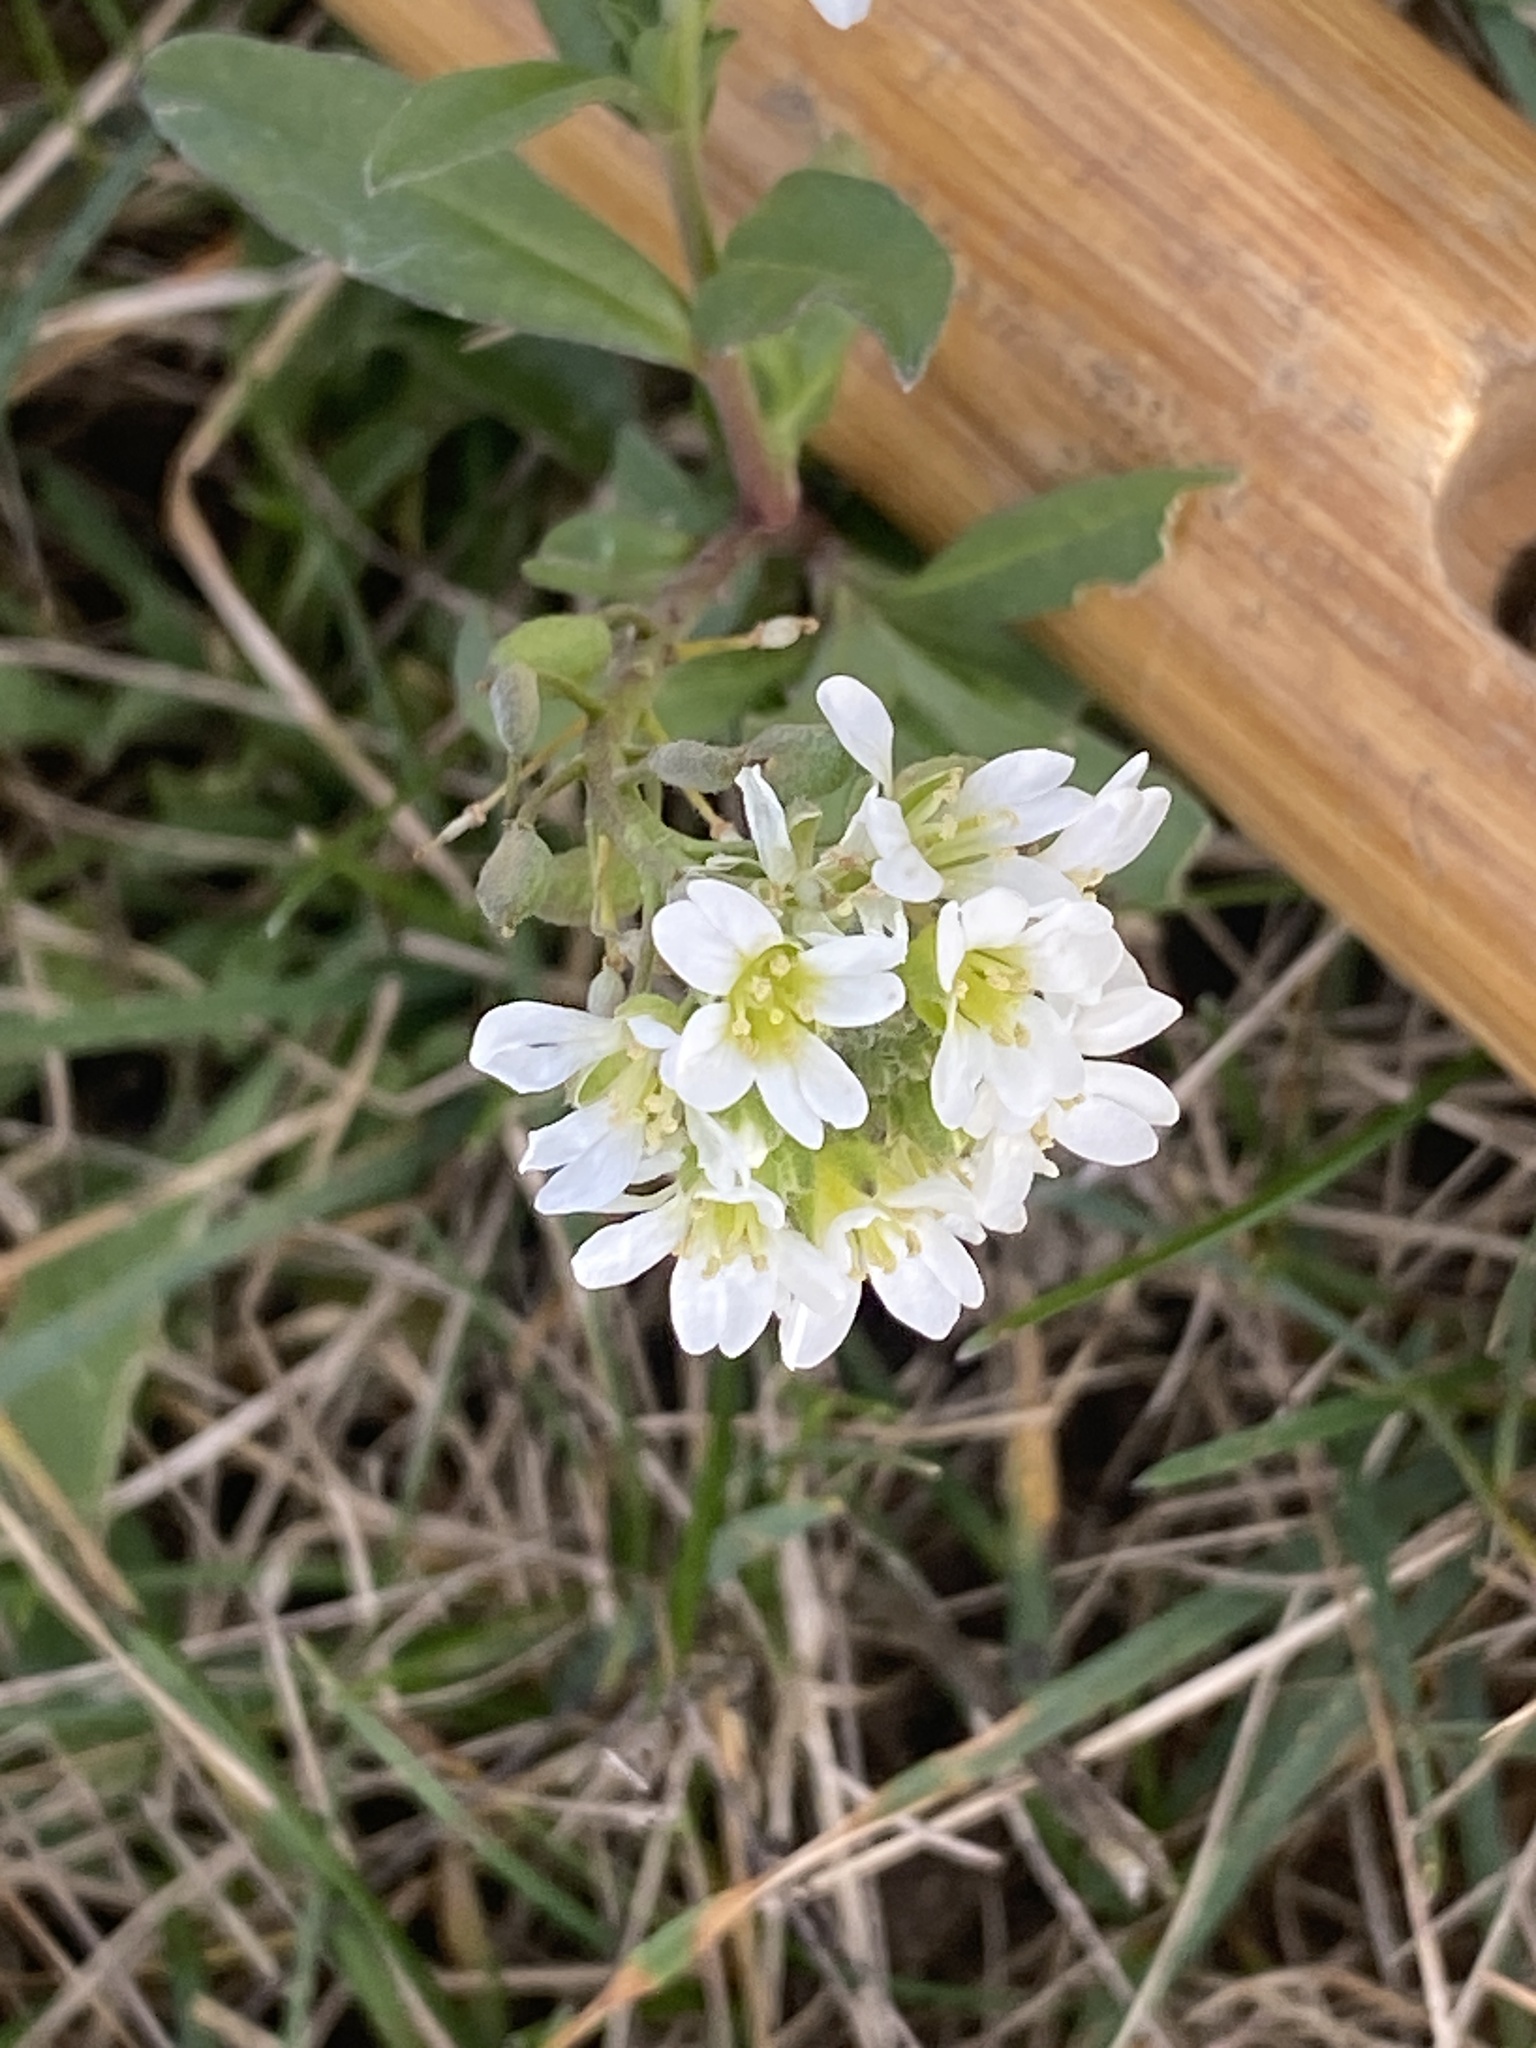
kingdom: Plantae
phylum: Tracheophyta
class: Magnoliopsida
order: Brassicales
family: Brassicaceae
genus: Berteroa
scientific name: Berteroa incana
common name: Hoary alison
